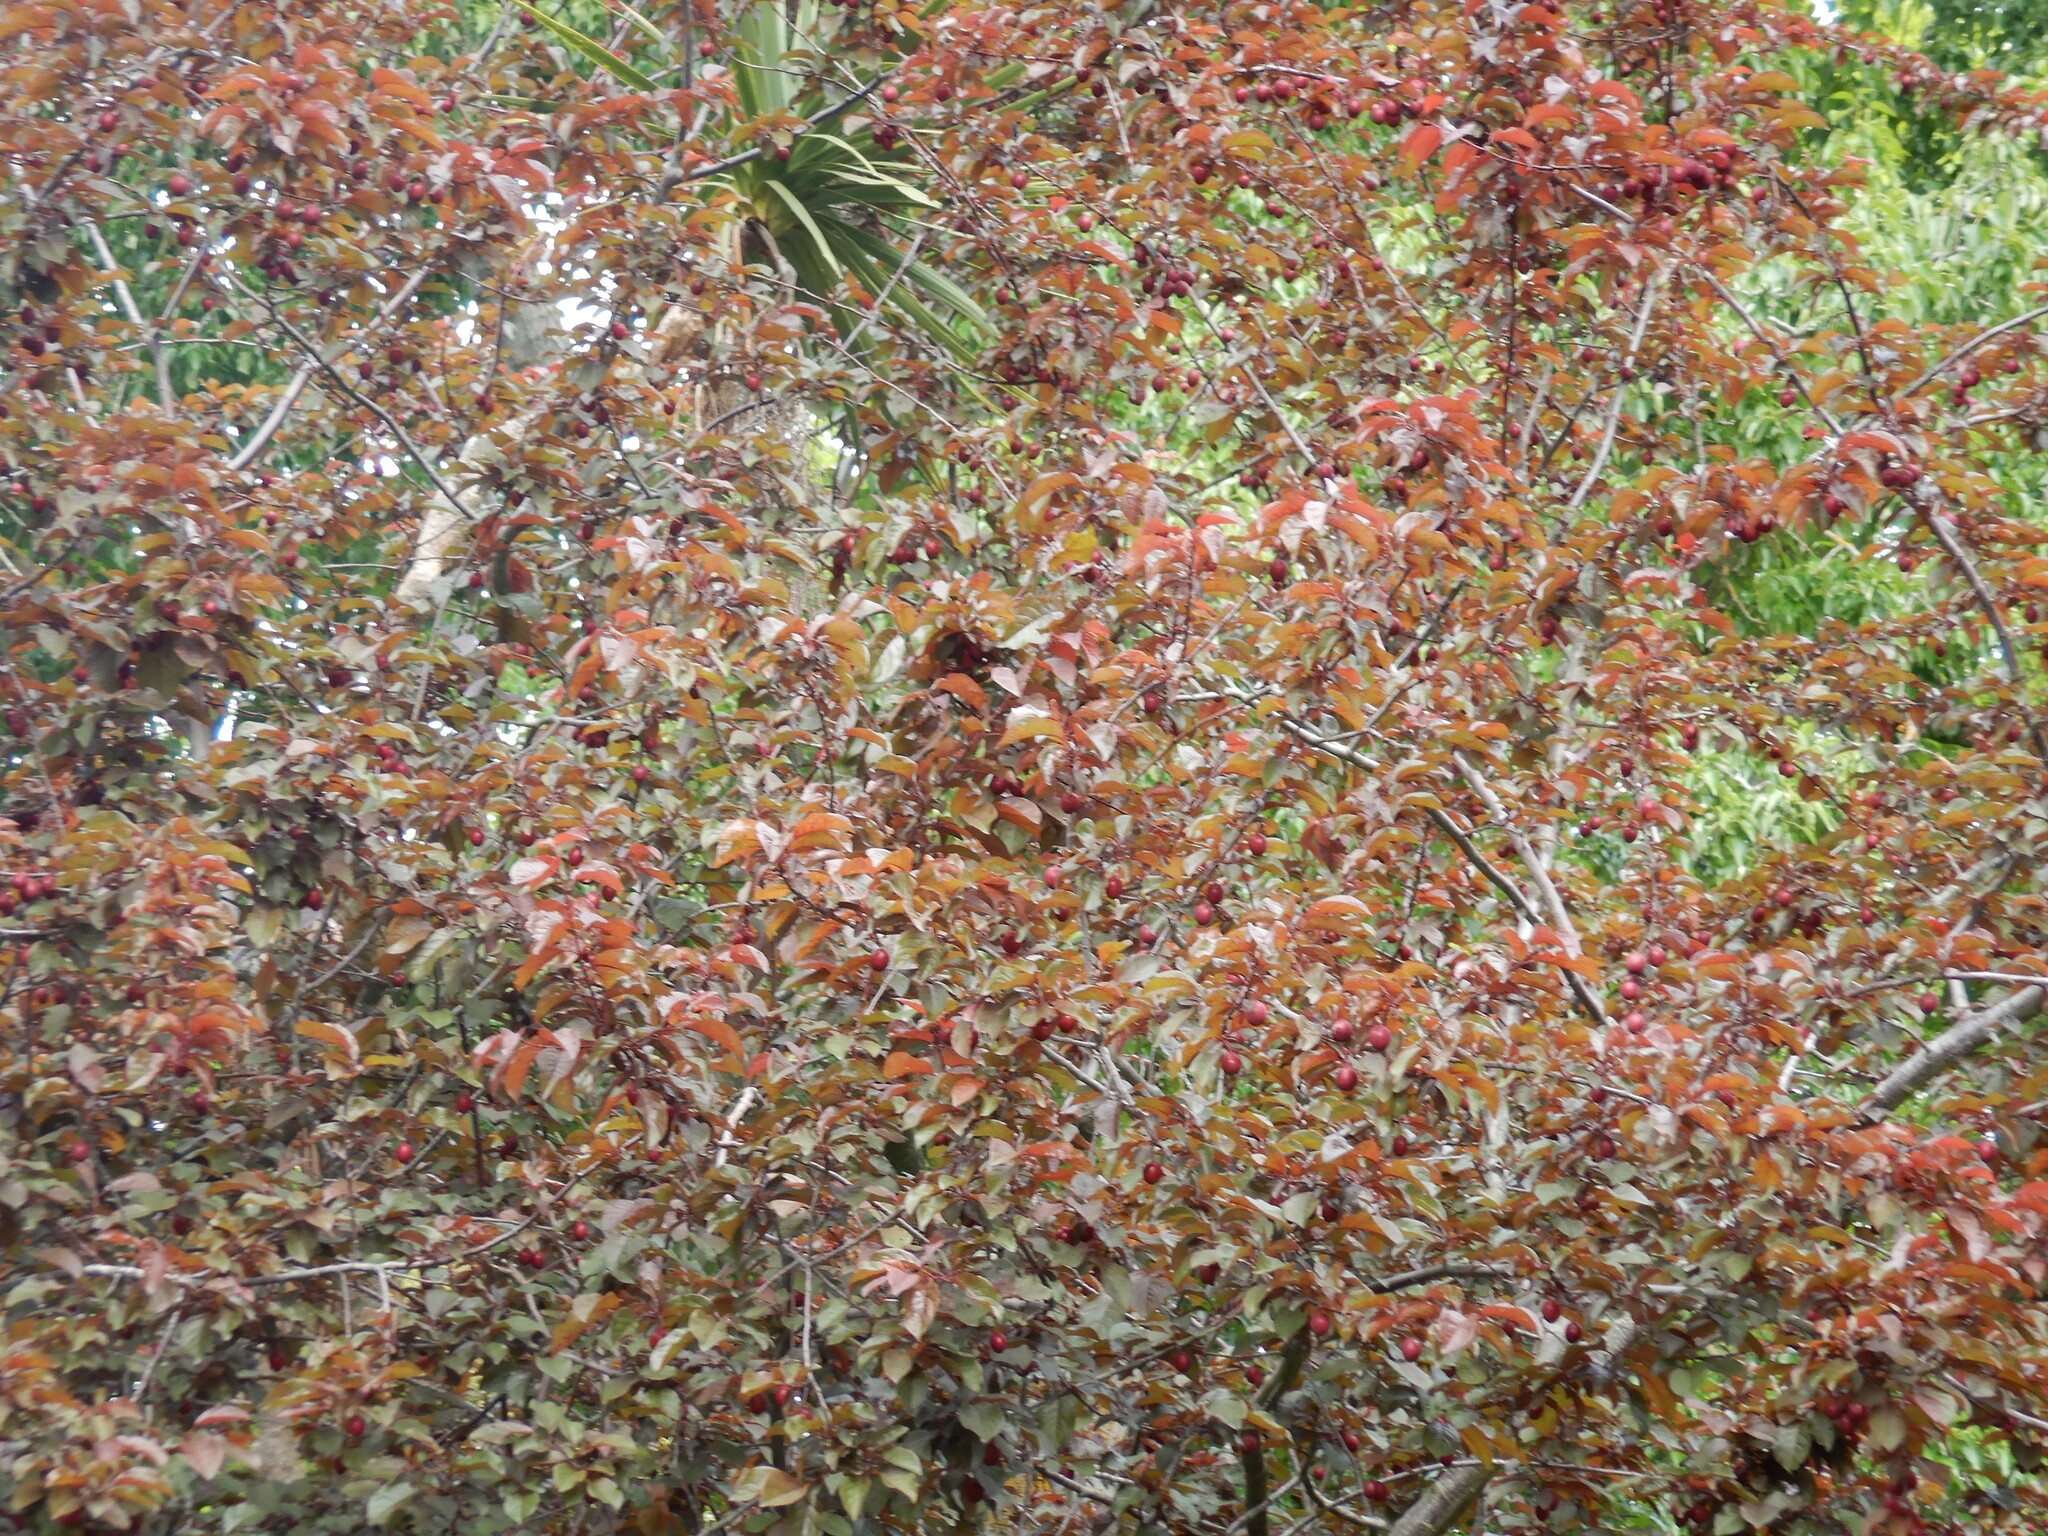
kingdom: Plantae
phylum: Tracheophyta
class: Magnoliopsida
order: Rosales
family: Rosaceae
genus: Prunus
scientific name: Prunus cerasifera
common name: Cherry plum
